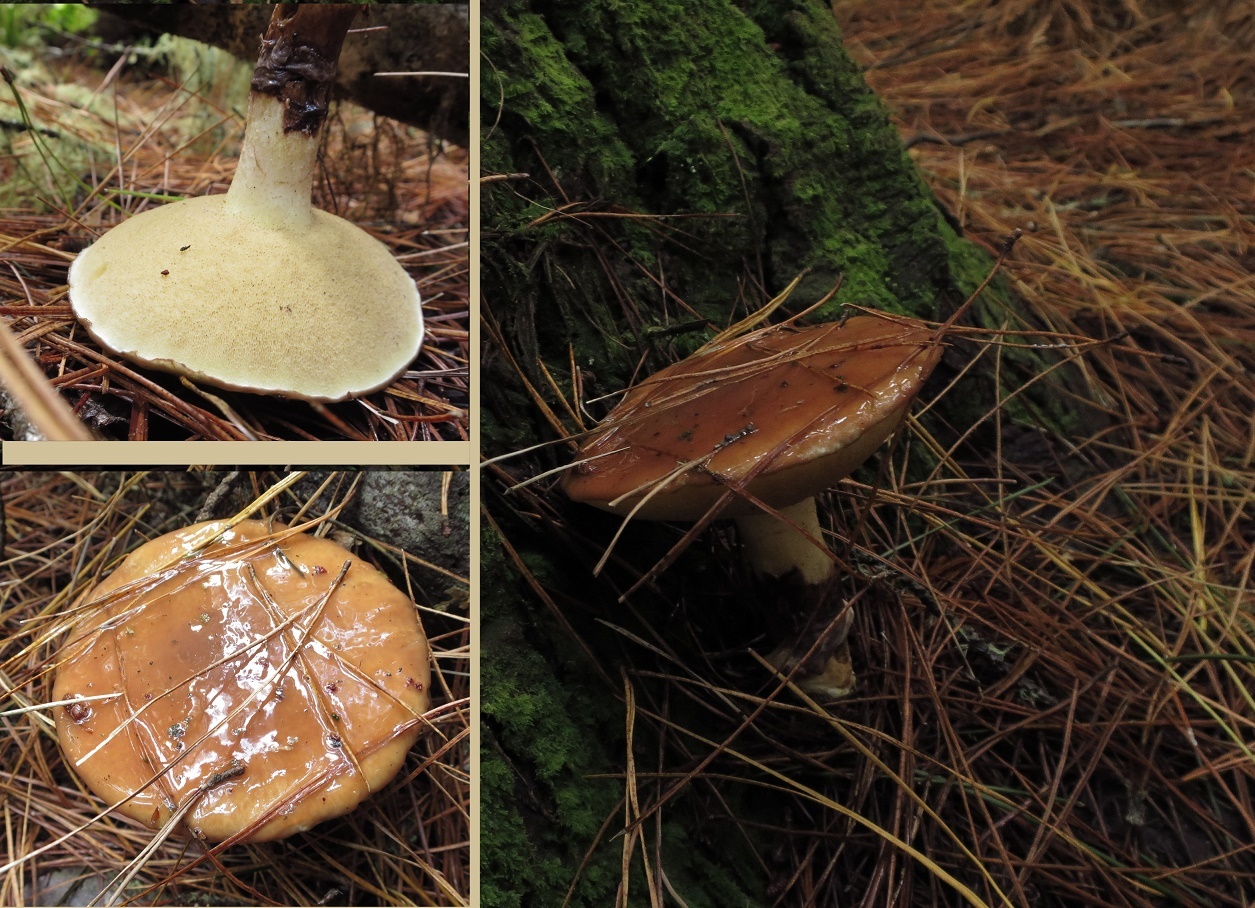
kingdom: Fungi
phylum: Basidiomycota
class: Agaricomycetes
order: Boletales
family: Suillaceae
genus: Suillus
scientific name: Suillus granulatus
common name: Weeping bolete
